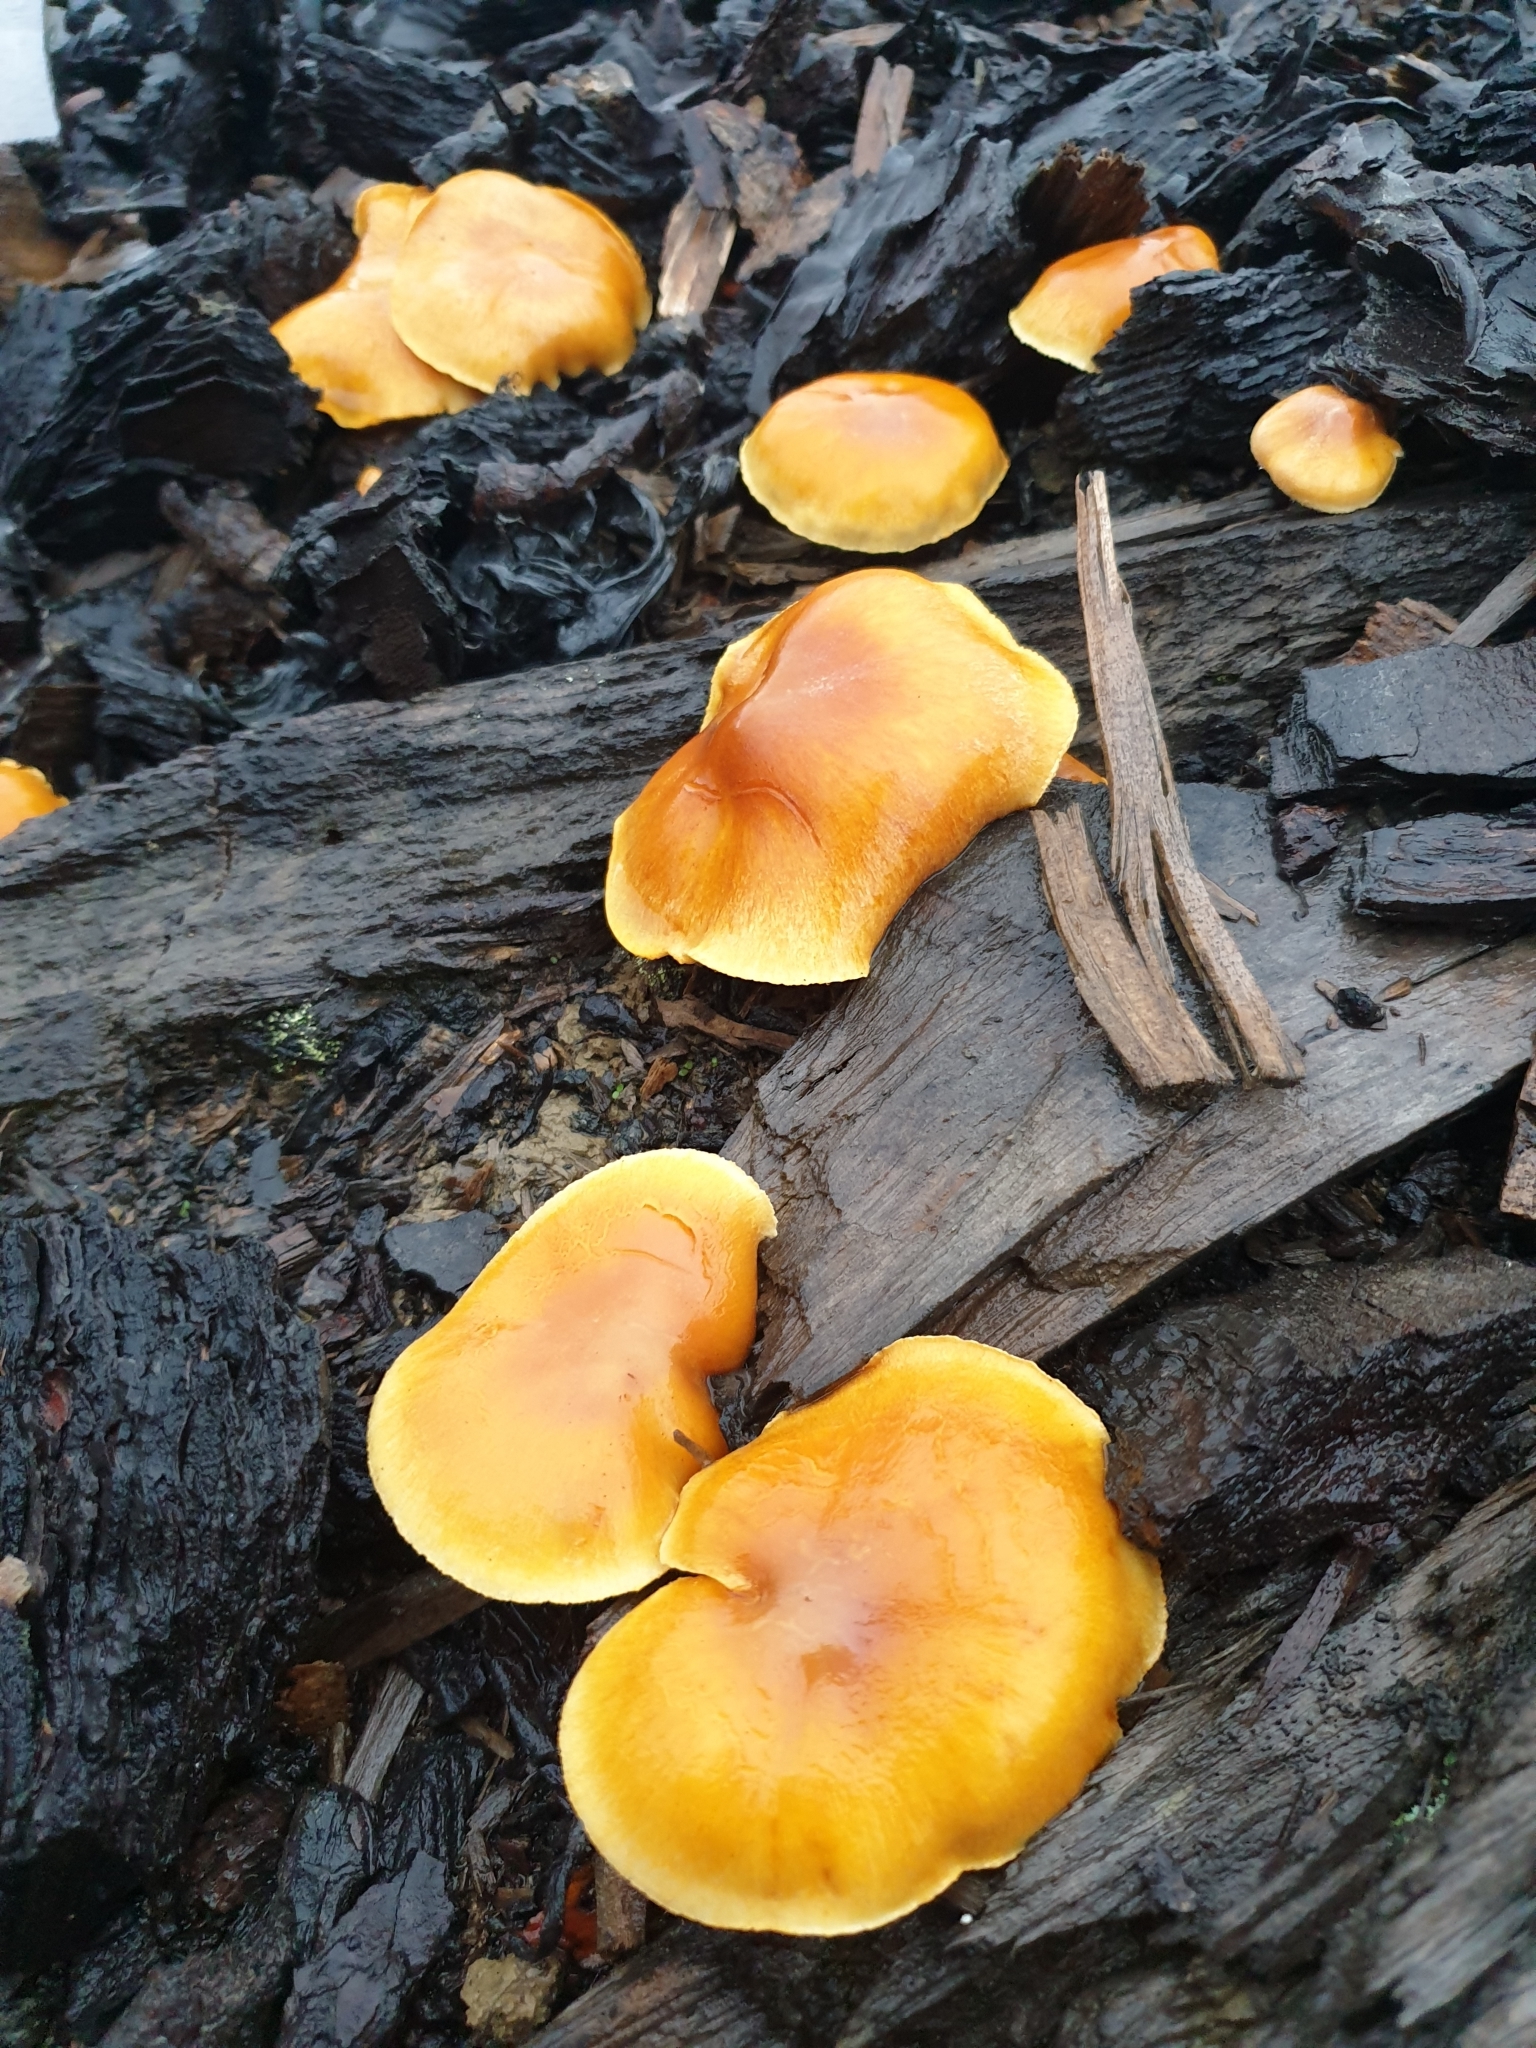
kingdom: Fungi
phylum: Basidiomycota
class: Agaricomycetes
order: Agaricales
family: Physalacriaceae
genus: Flammulina
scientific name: Flammulina velutipes
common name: Velvet shank
